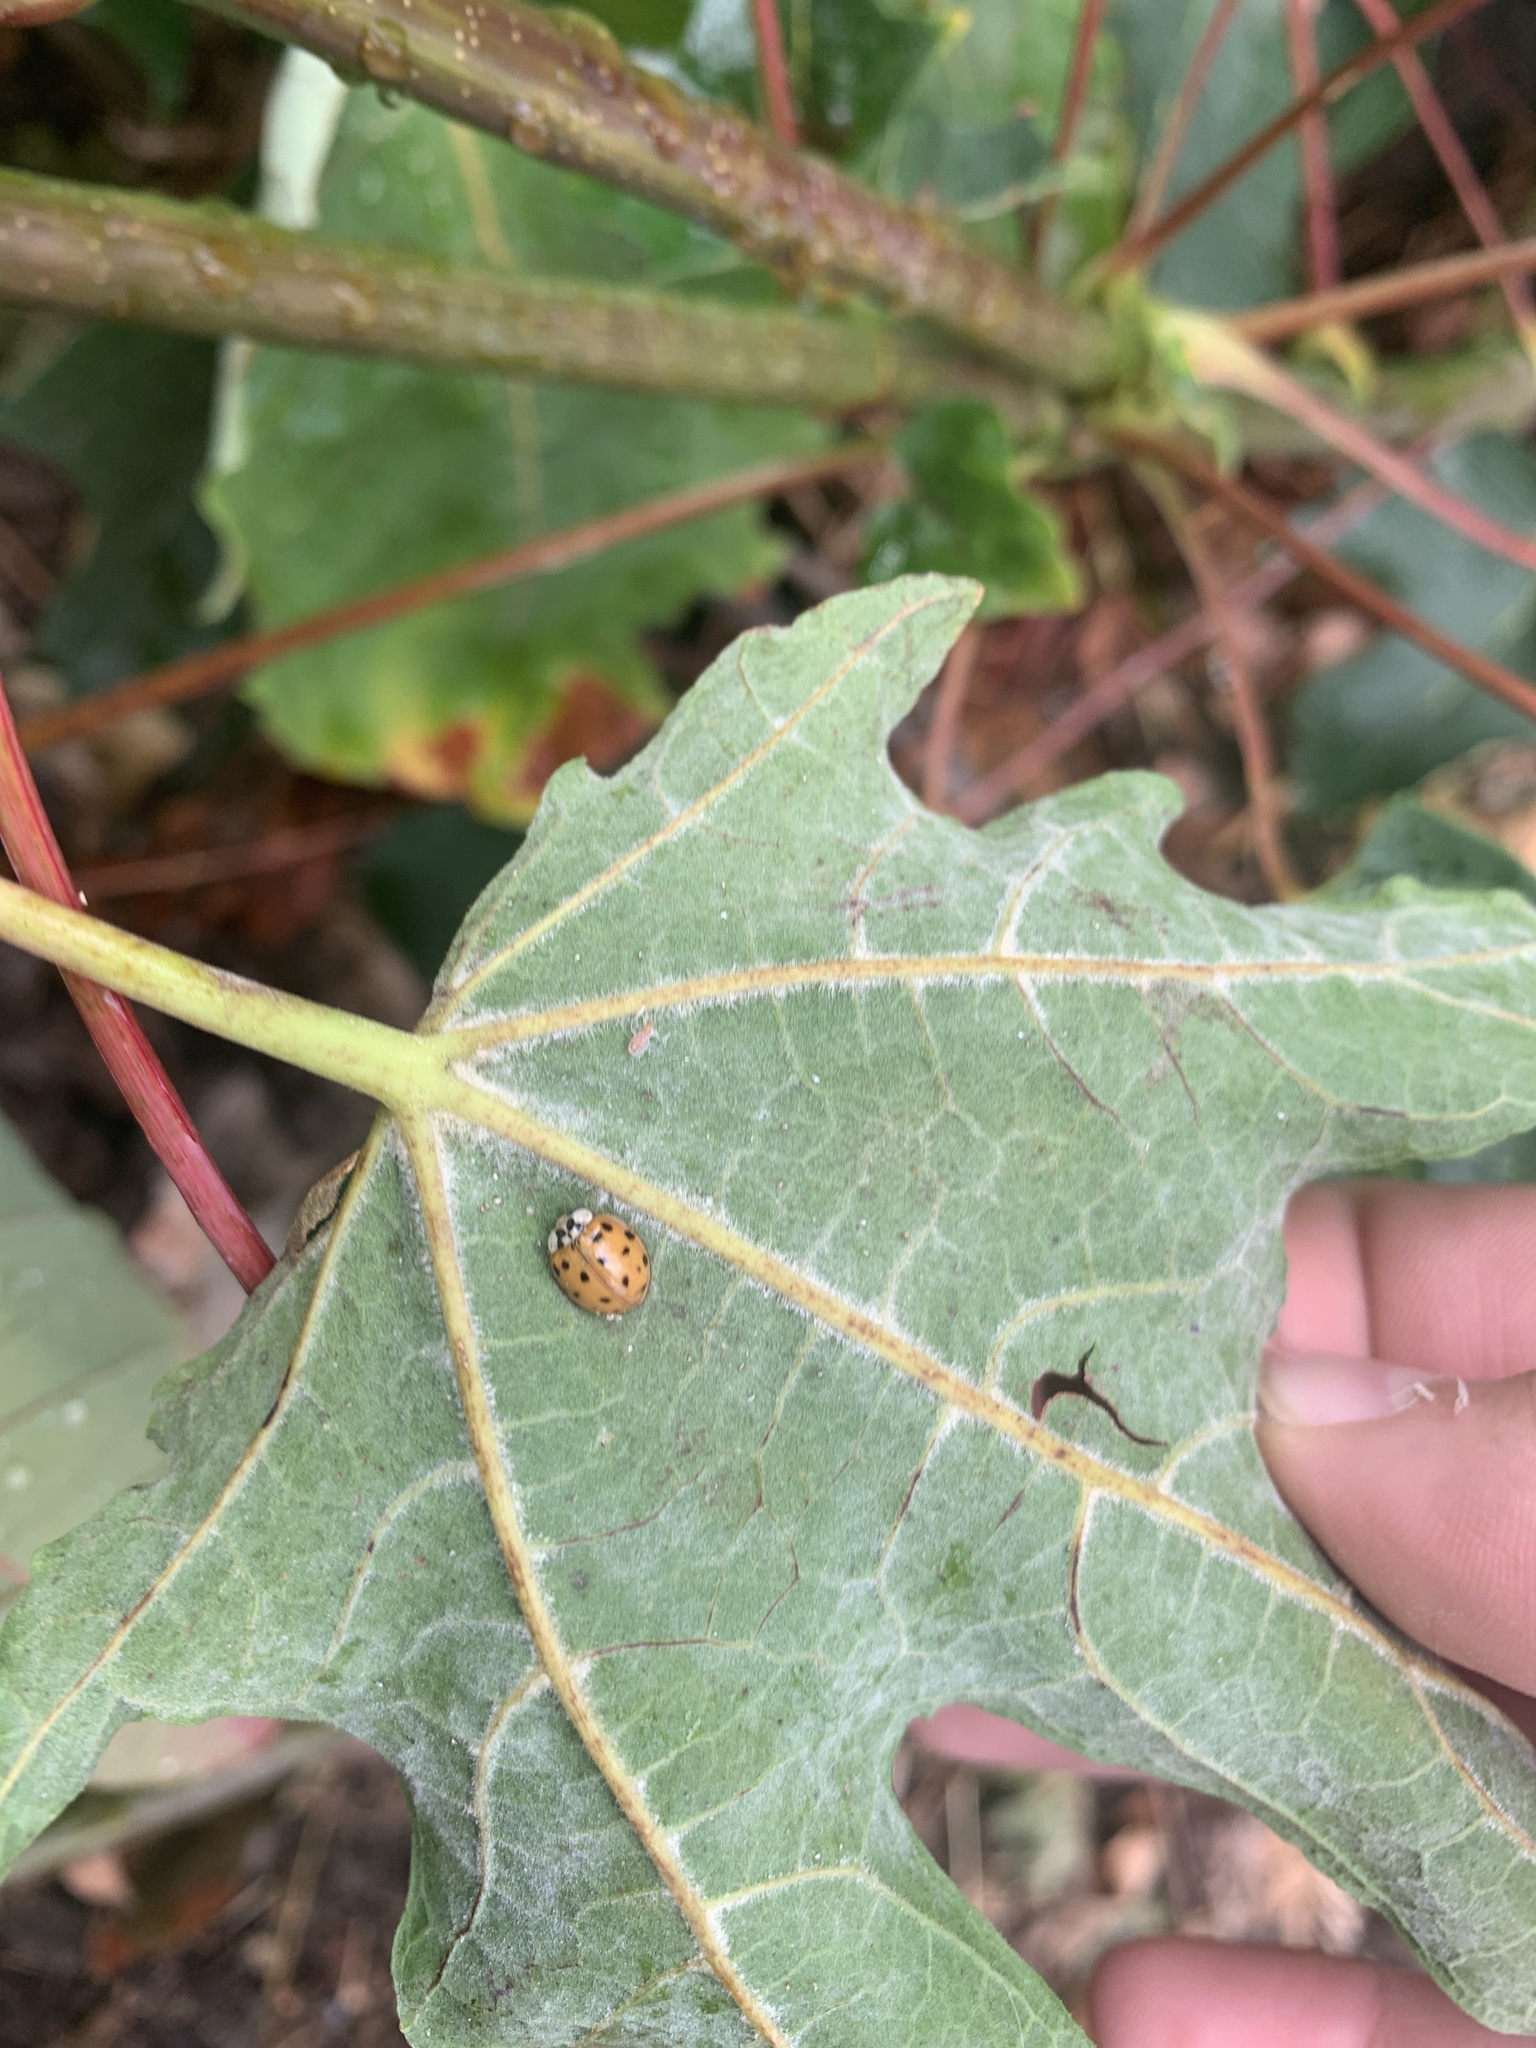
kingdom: Animalia
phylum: Arthropoda
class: Insecta
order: Coleoptera
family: Coccinellidae
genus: Harmonia
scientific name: Harmonia axyridis
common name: Harlequin ladybird
